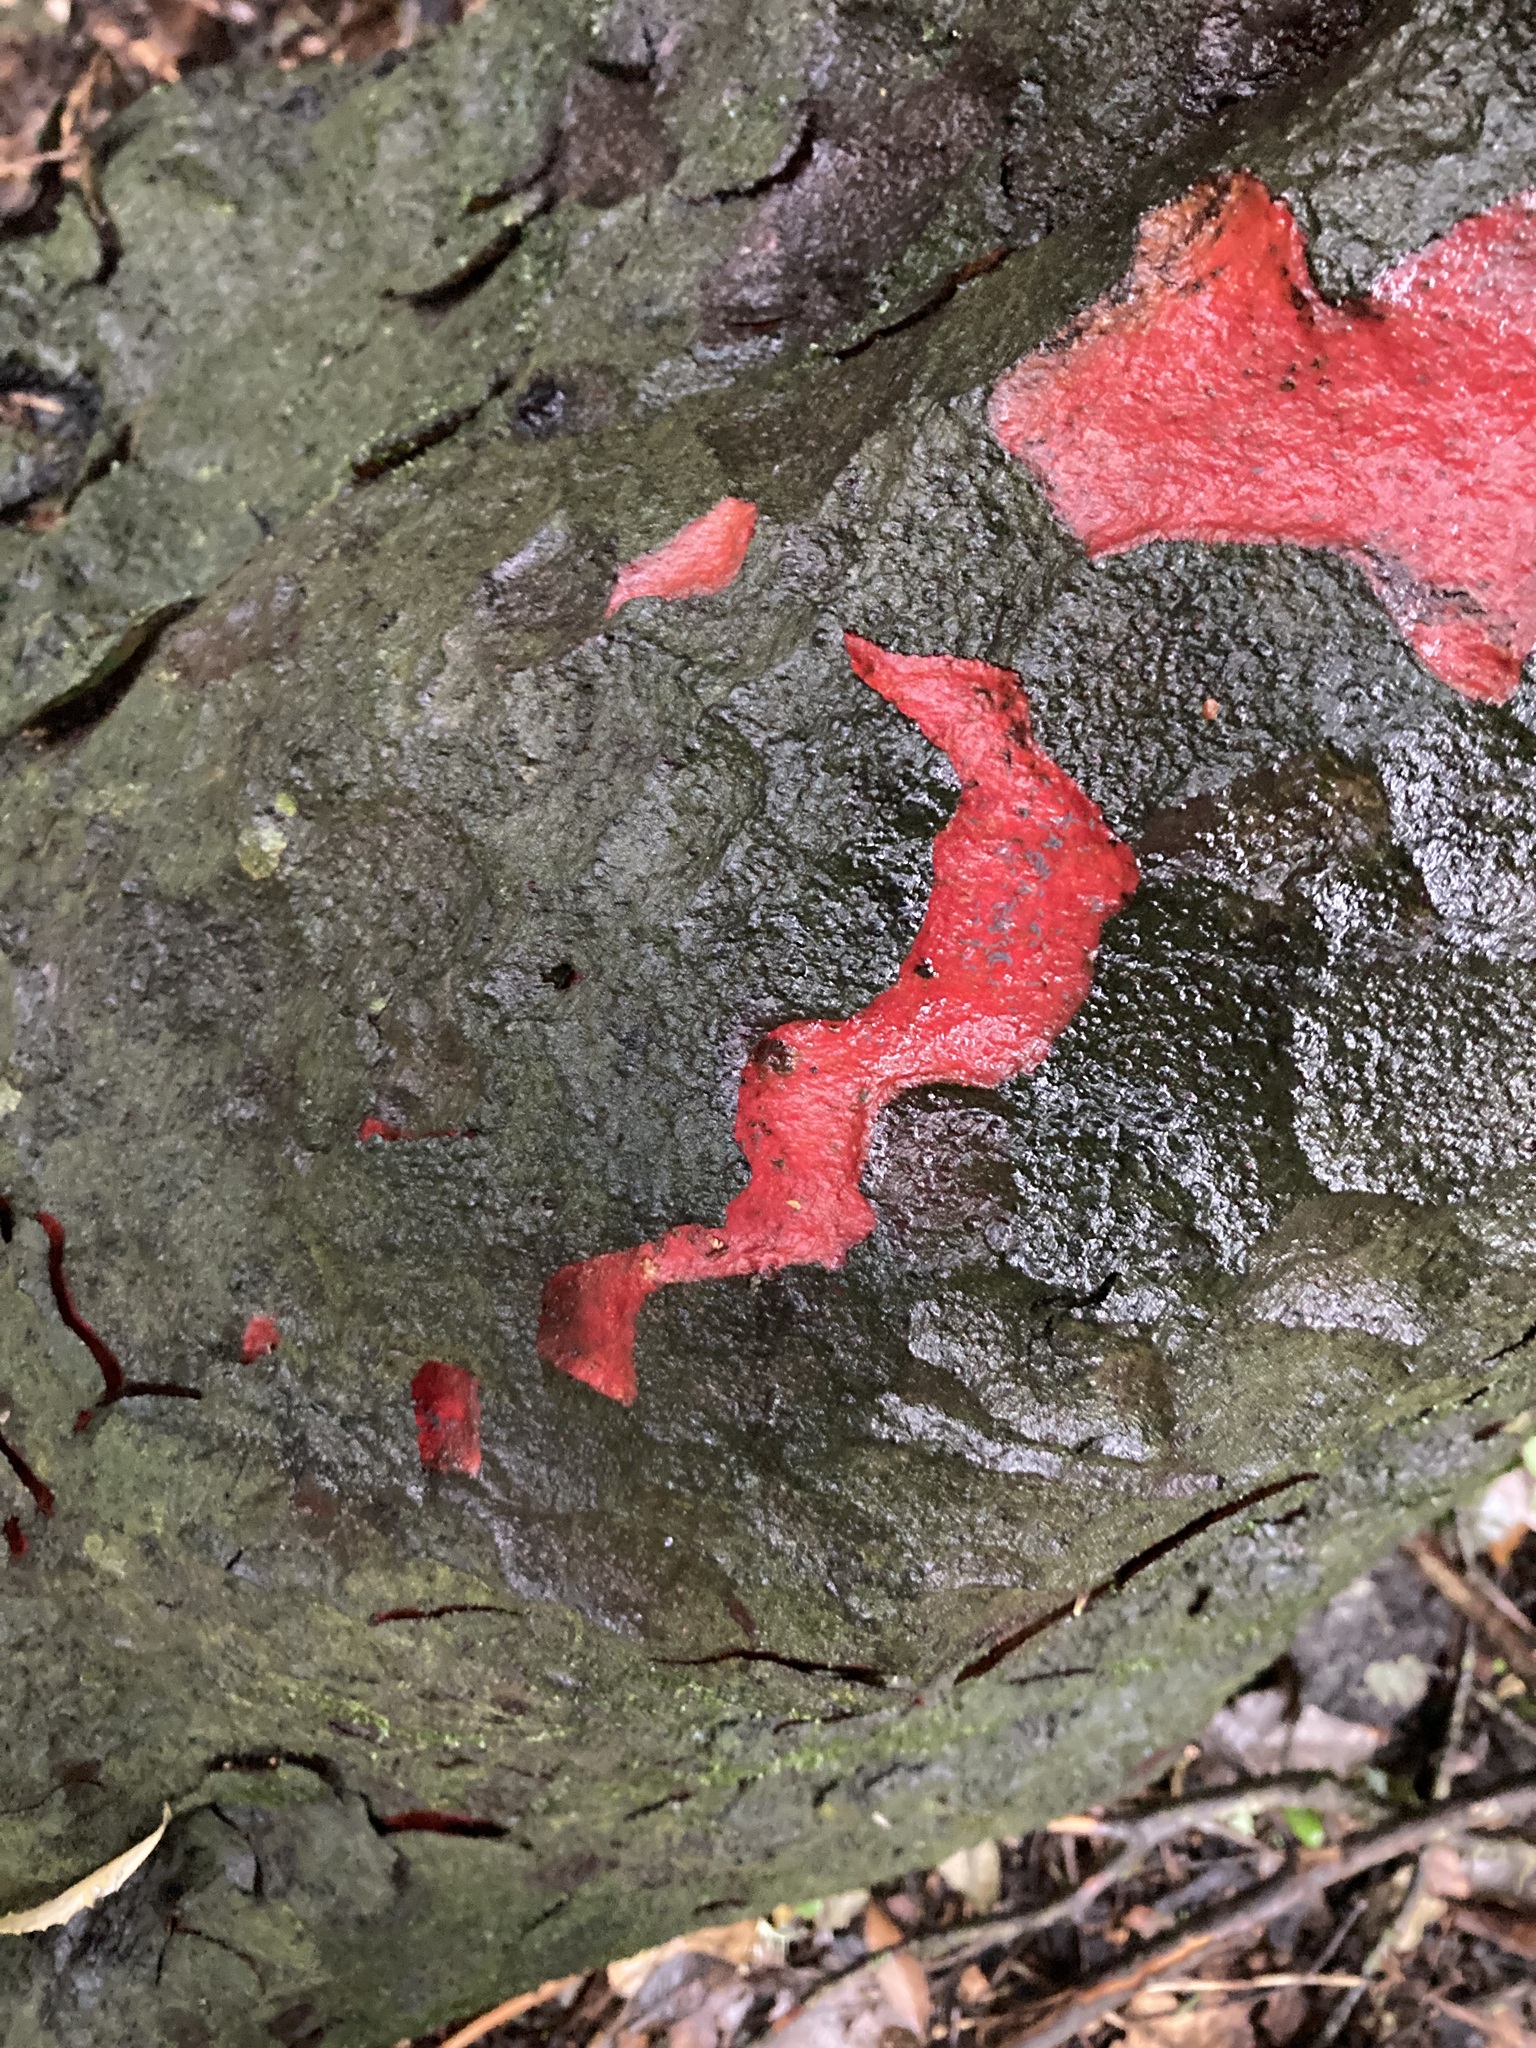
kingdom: Plantae
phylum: Tracheophyta
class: Pinopsida
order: Pinales
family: Podocarpaceae
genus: Prumnopitys
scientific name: Prumnopitys taxifolia
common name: Matai
